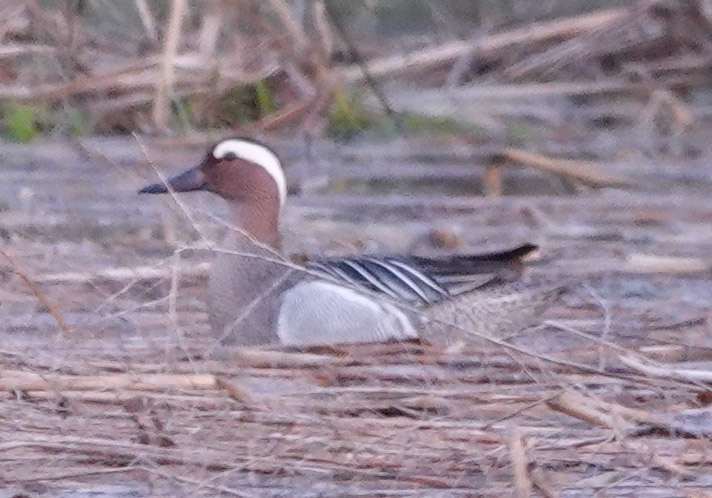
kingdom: Animalia
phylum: Chordata
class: Aves
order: Anseriformes
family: Anatidae
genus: Spatula
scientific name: Spatula querquedula
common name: Garganey
